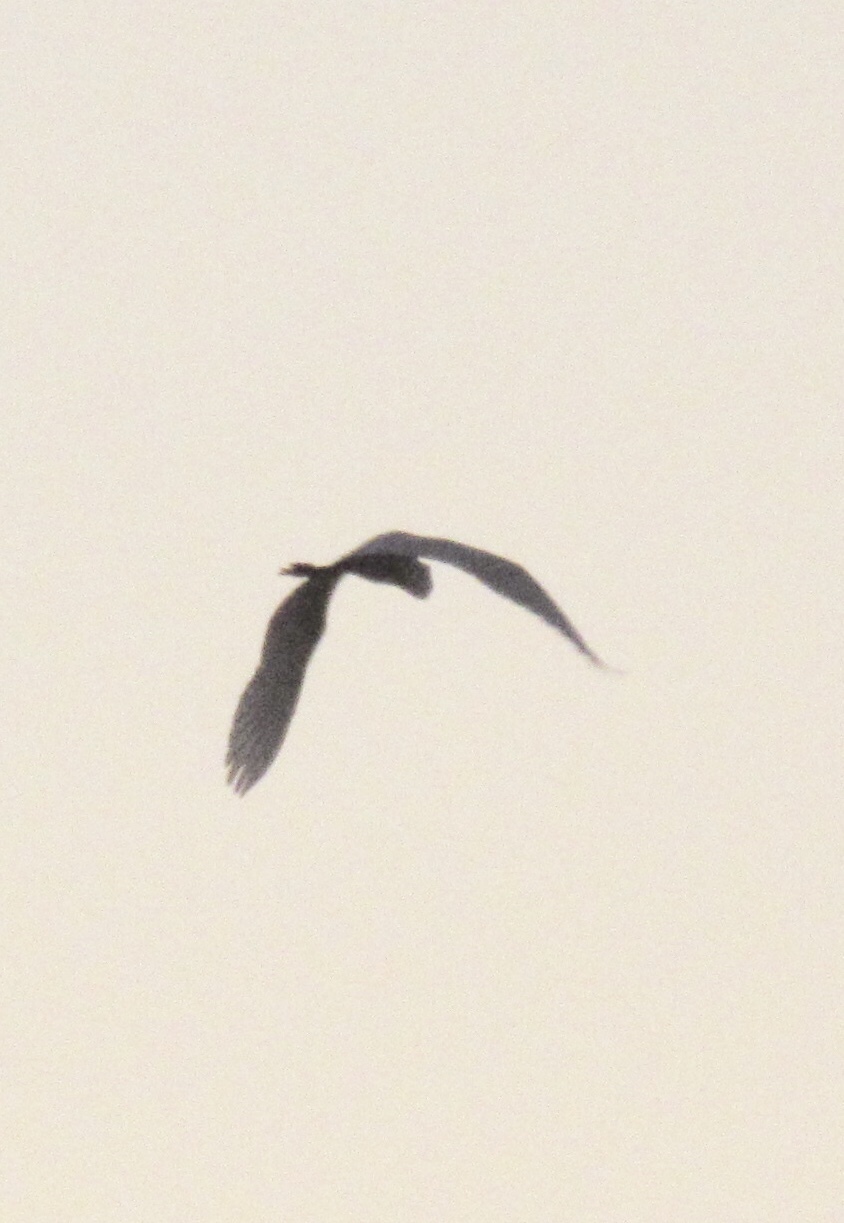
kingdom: Animalia
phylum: Chordata
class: Aves
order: Pelecaniformes
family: Ardeidae
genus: Ardea
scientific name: Ardea alba
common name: Great egret
